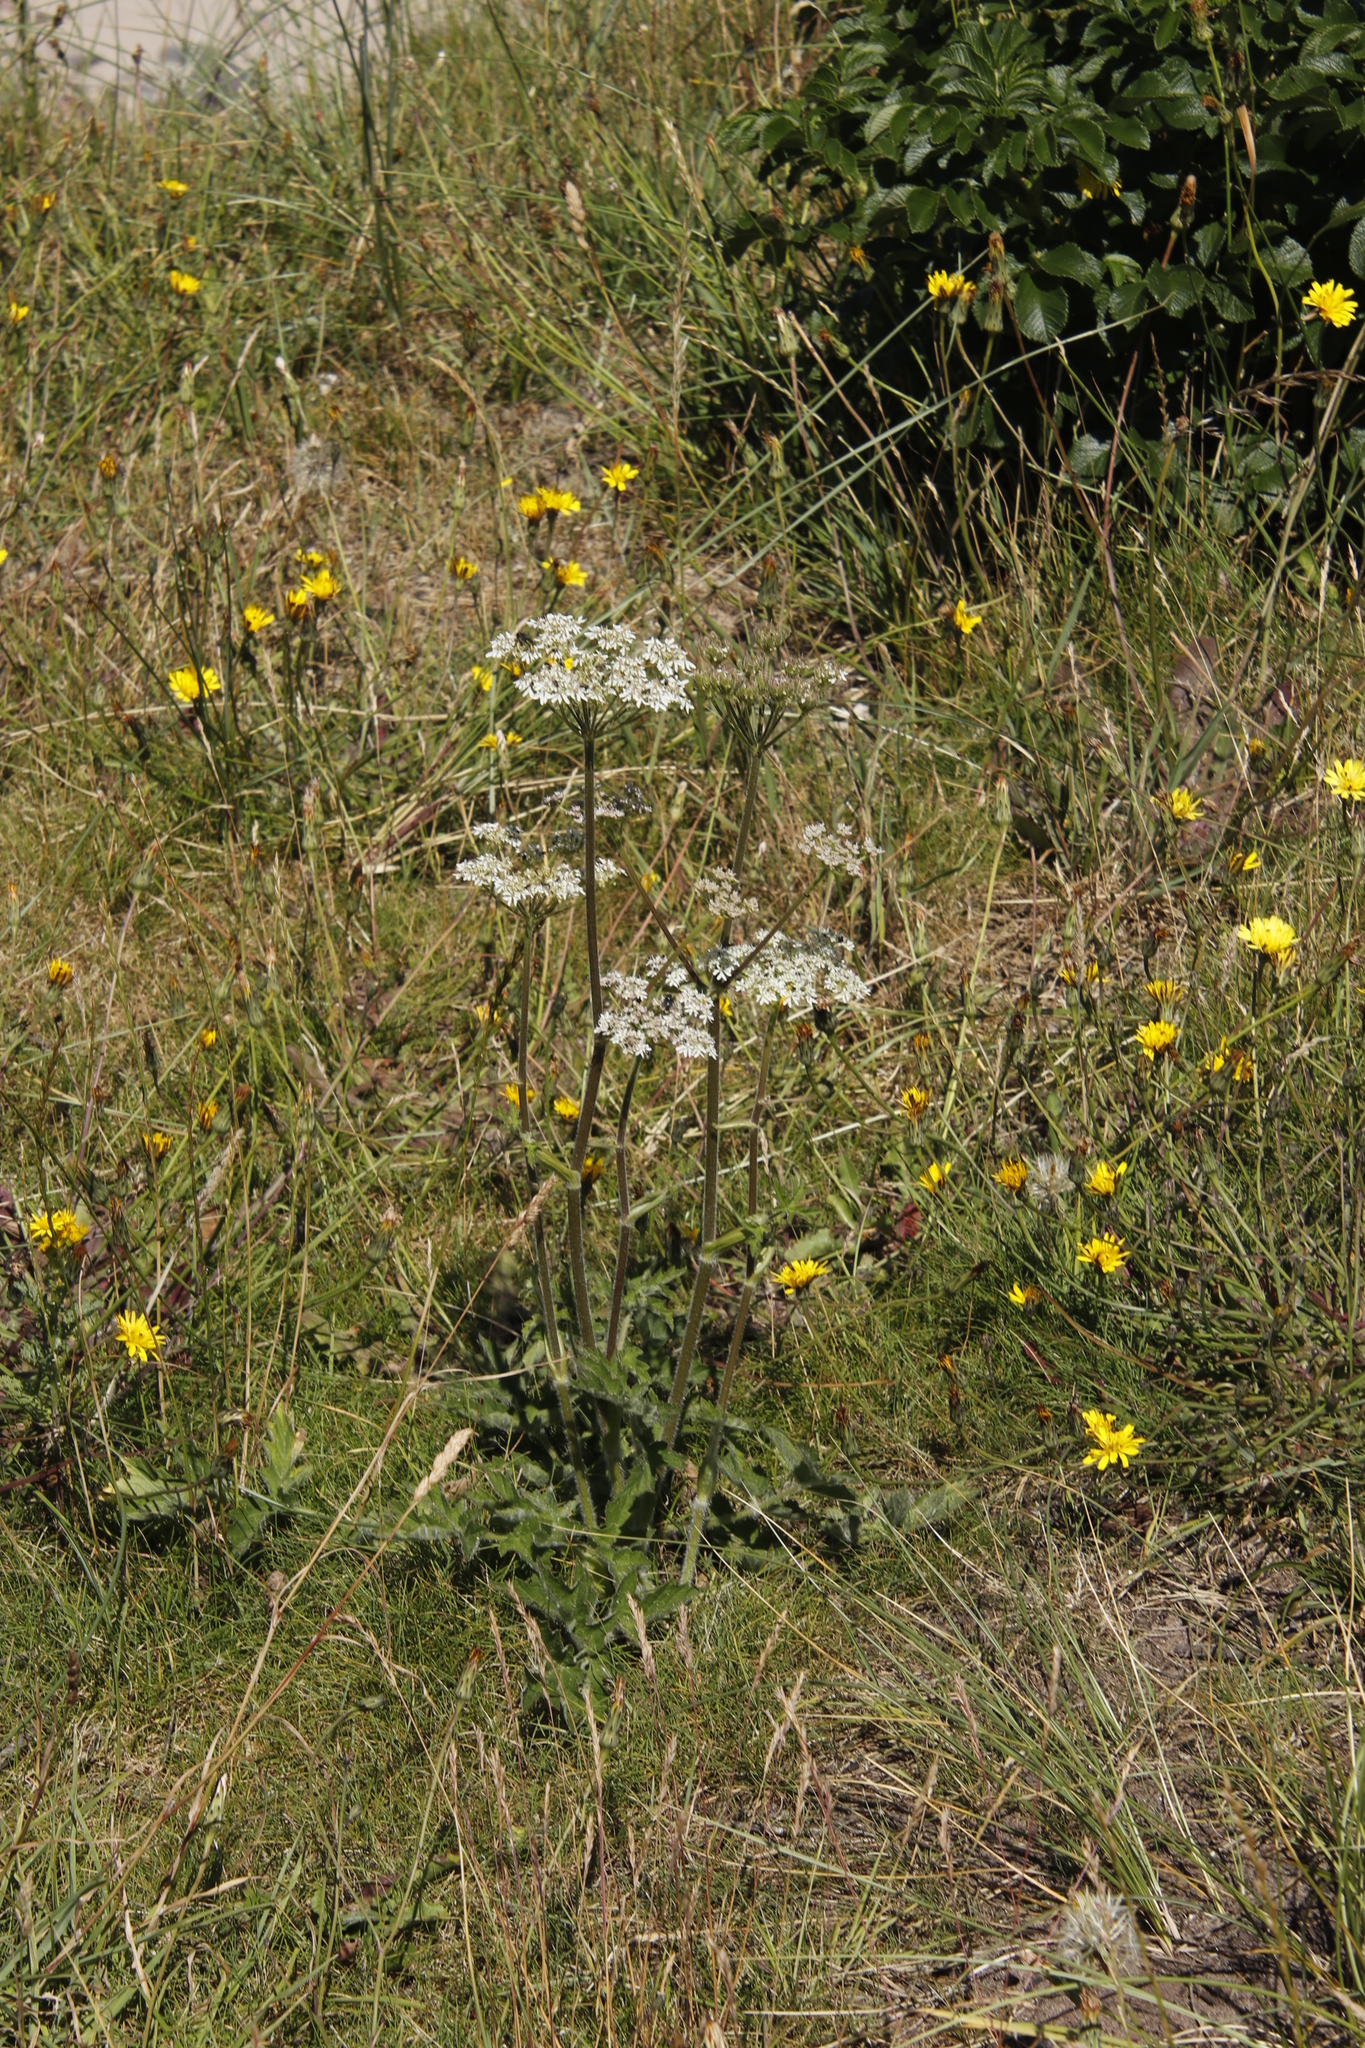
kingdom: Plantae
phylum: Tracheophyta
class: Magnoliopsida
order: Apiales
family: Apiaceae
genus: Heracleum
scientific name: Heracleum sphondylium
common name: Hogweed
